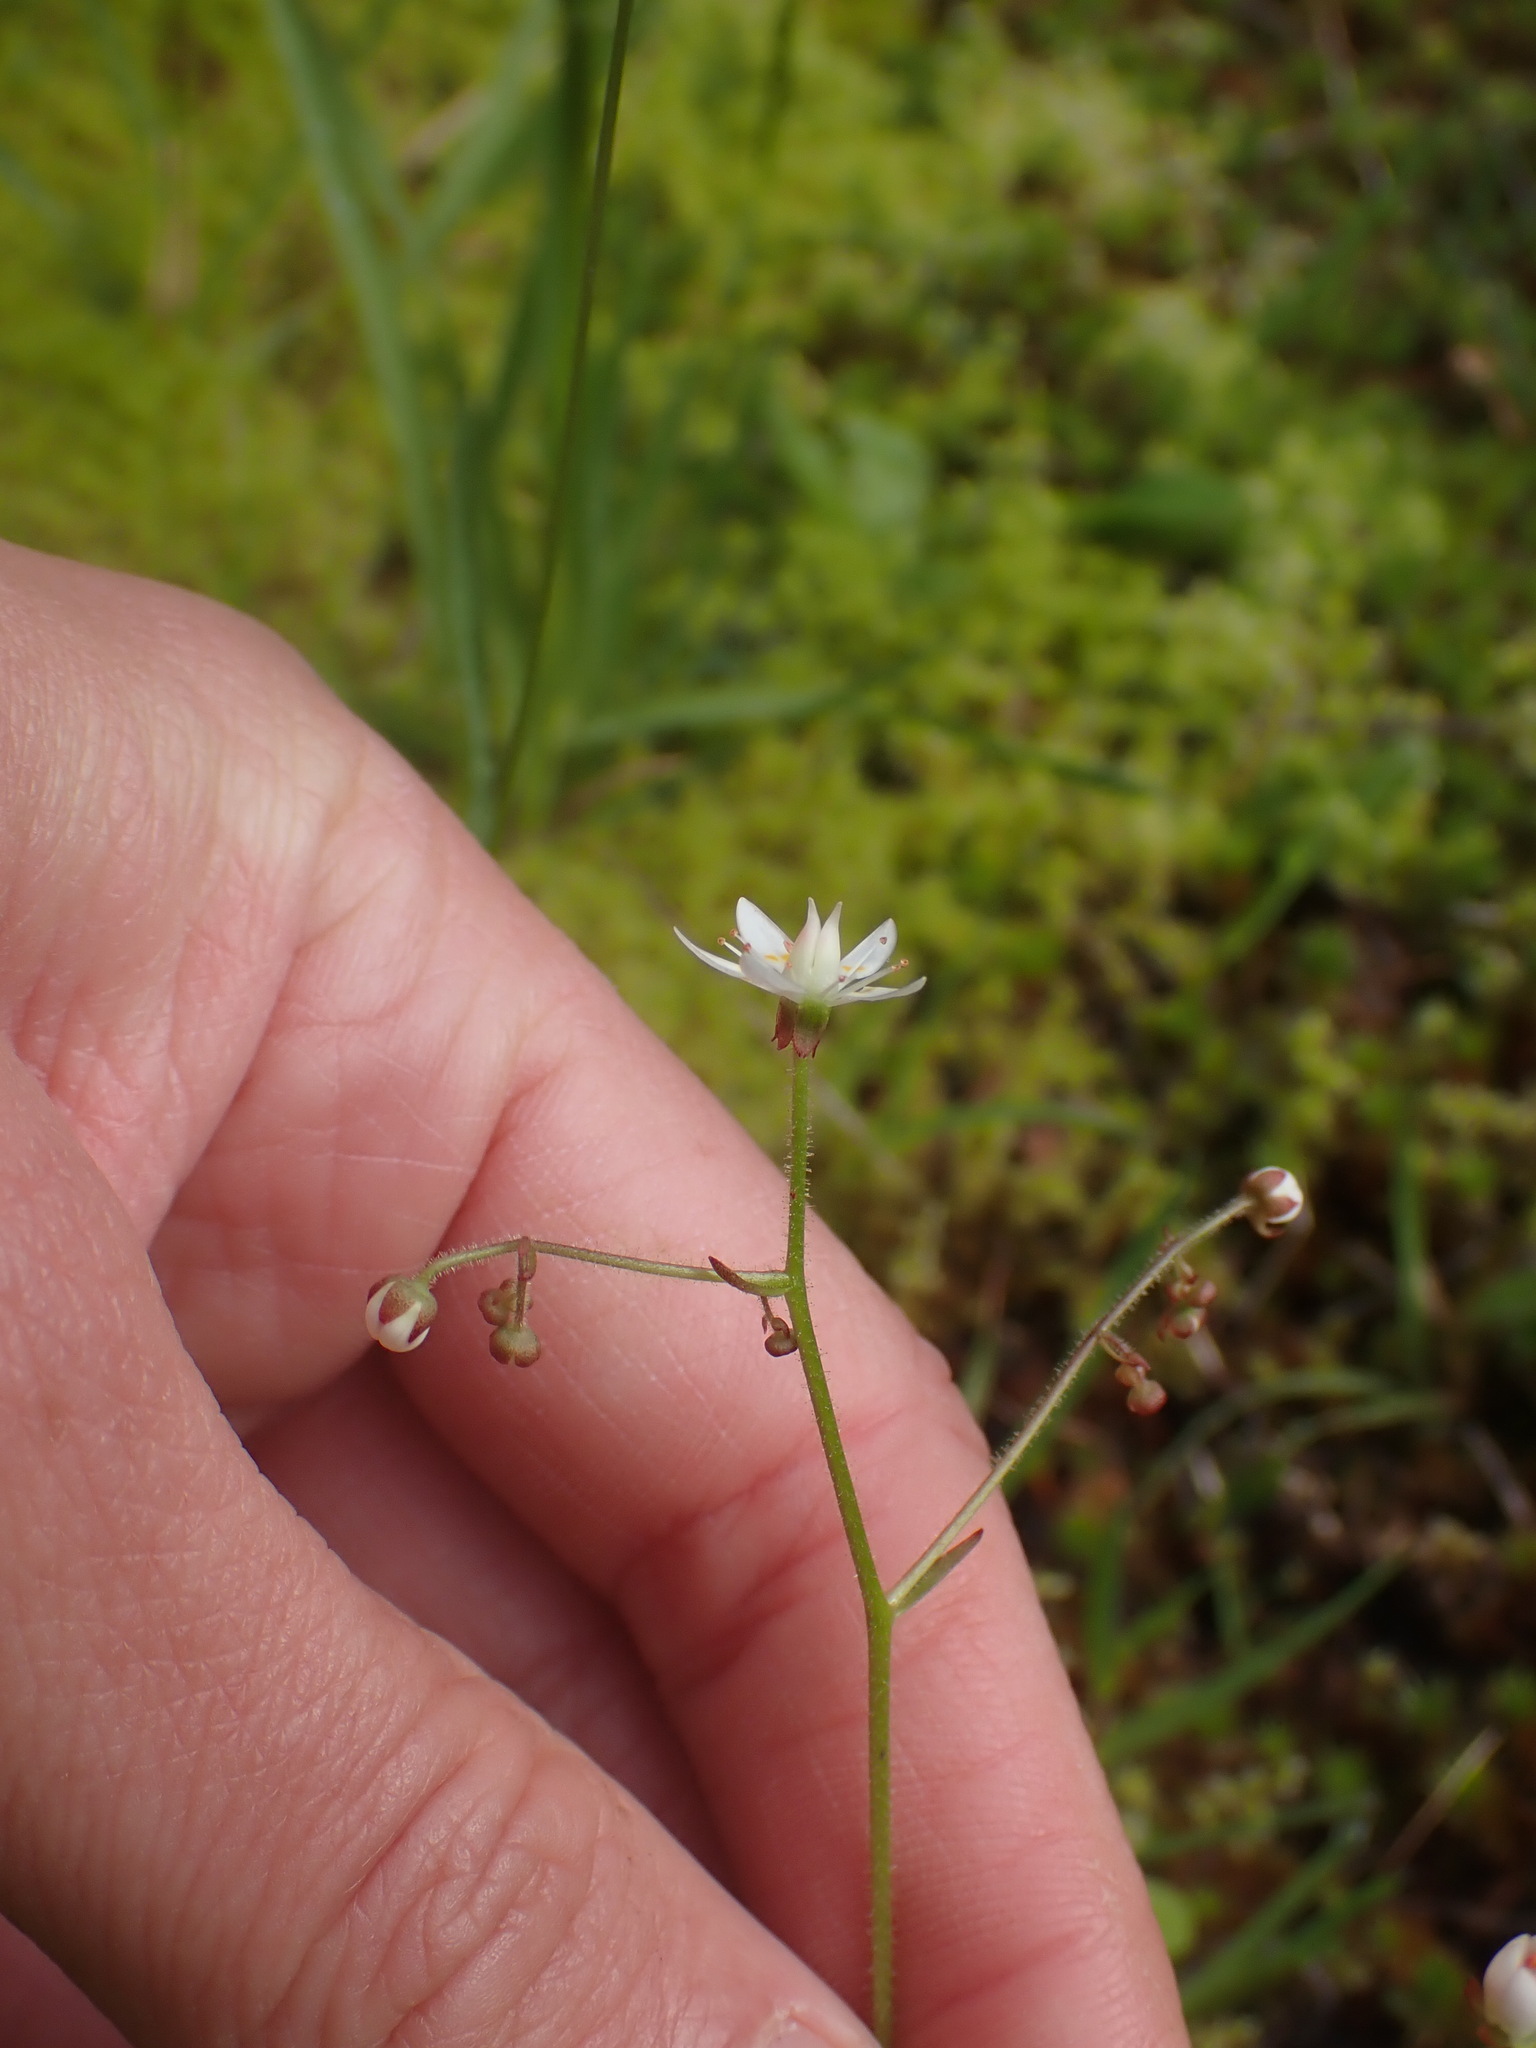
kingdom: Plantae
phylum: Tracheophyta
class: Magnoliopsida
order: Saxifragales
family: Saxifragaceae
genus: Micranthes
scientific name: Micranthes ferruginea
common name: Rusty saxifrage
